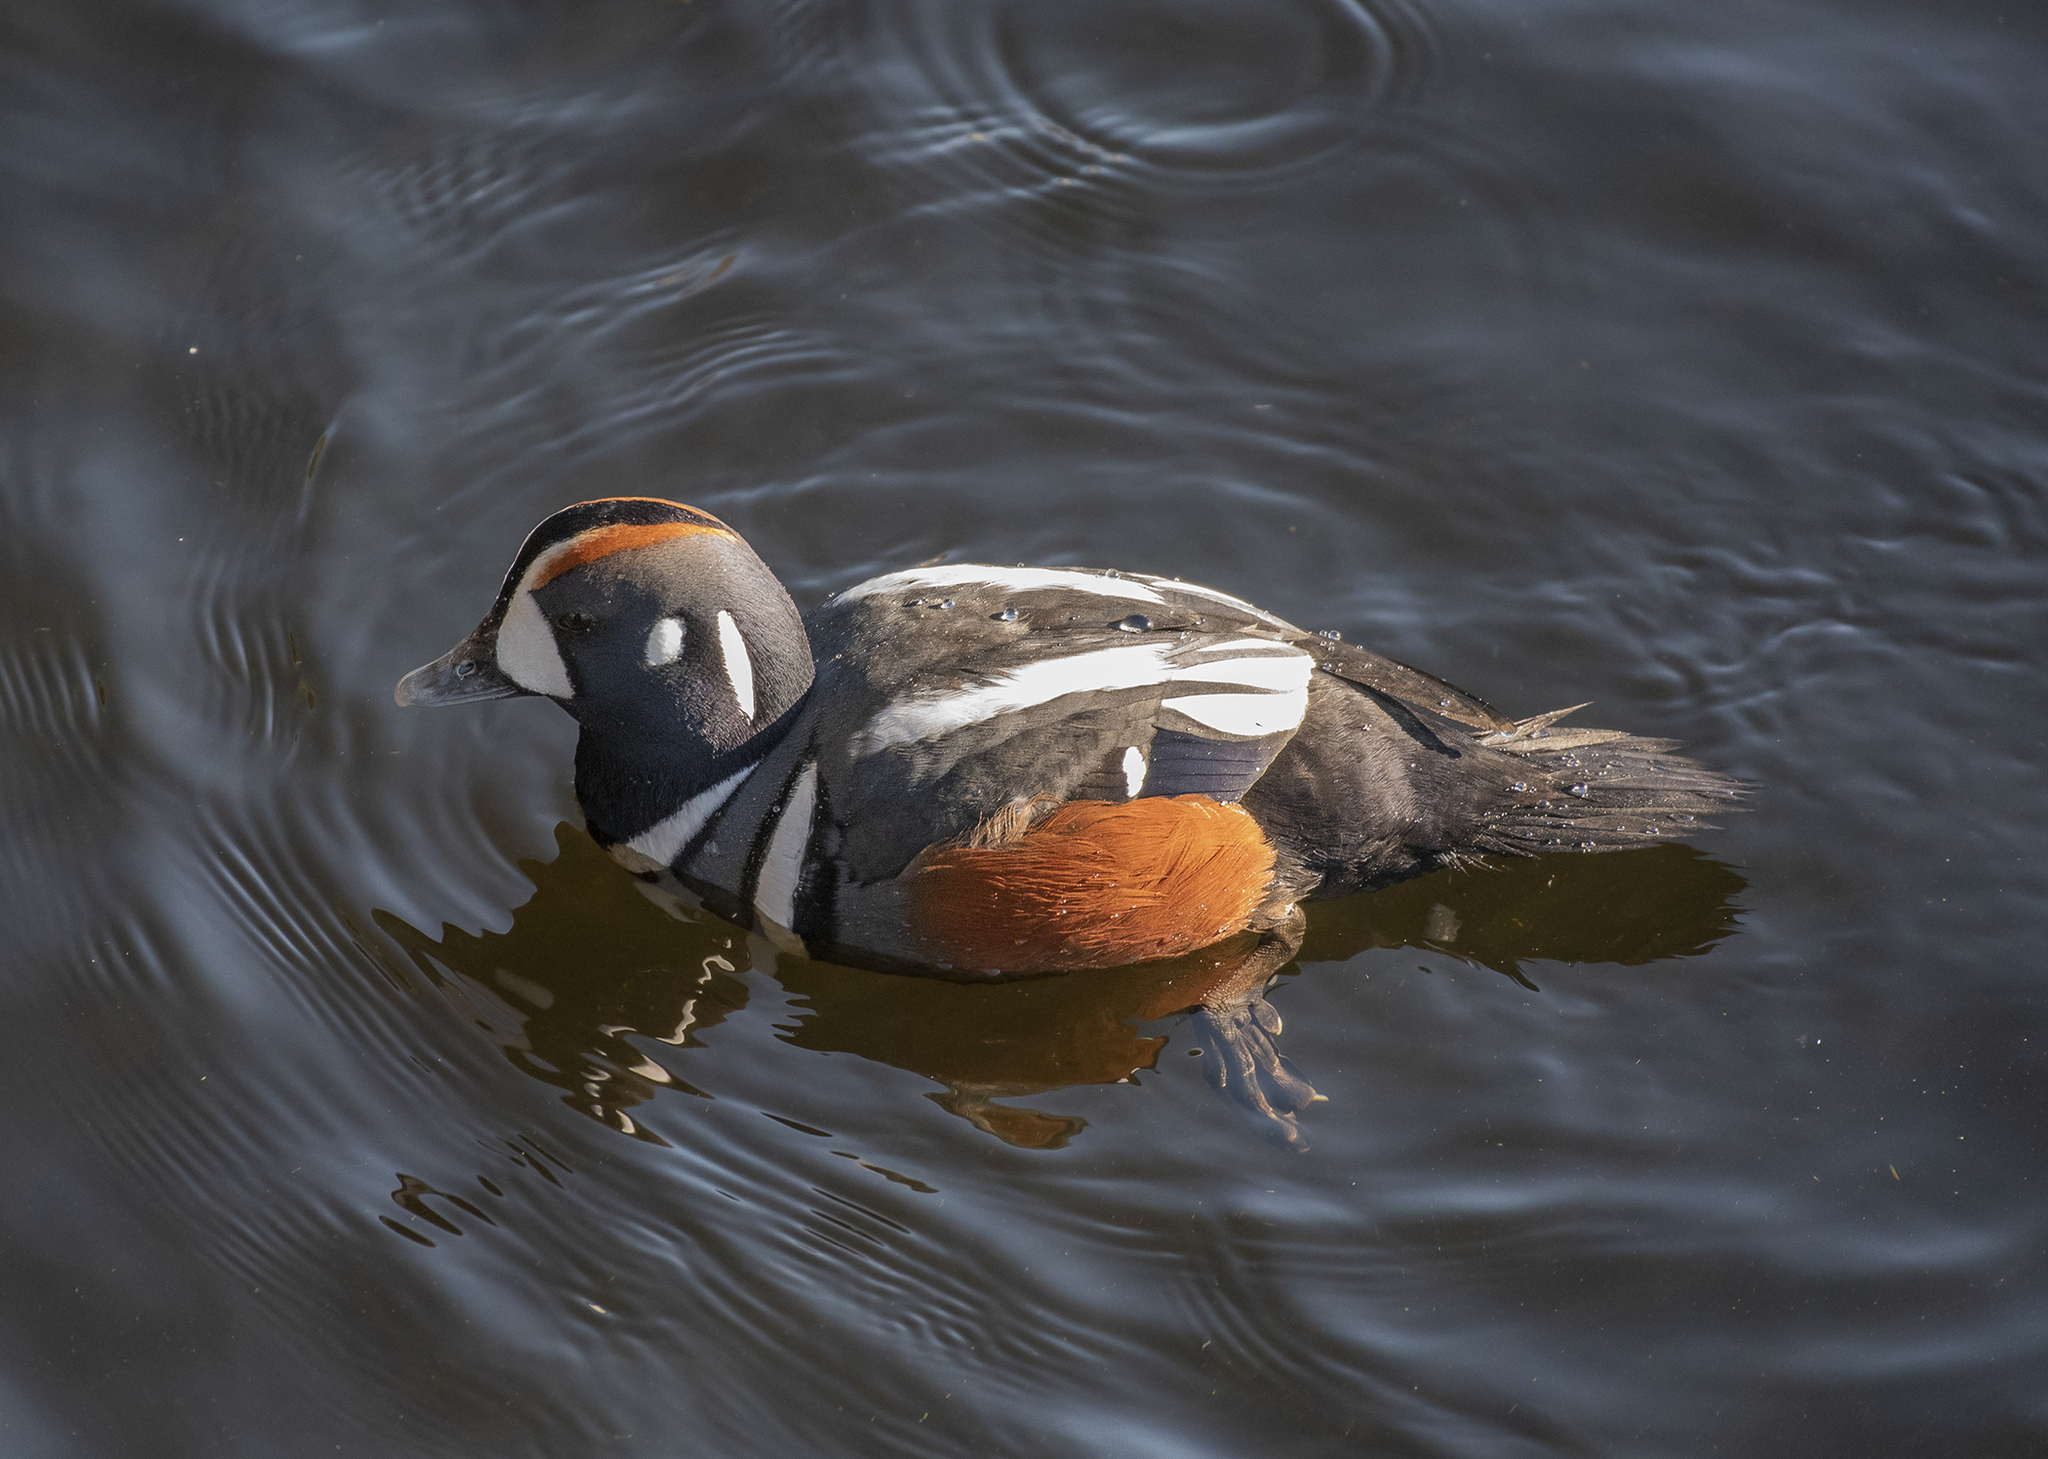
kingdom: Animalia
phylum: Chordata
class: Aves
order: Anseriformes
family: Anatidae
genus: Histrionicus
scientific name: Histrionicus histrionicus
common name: Harlequin duck
